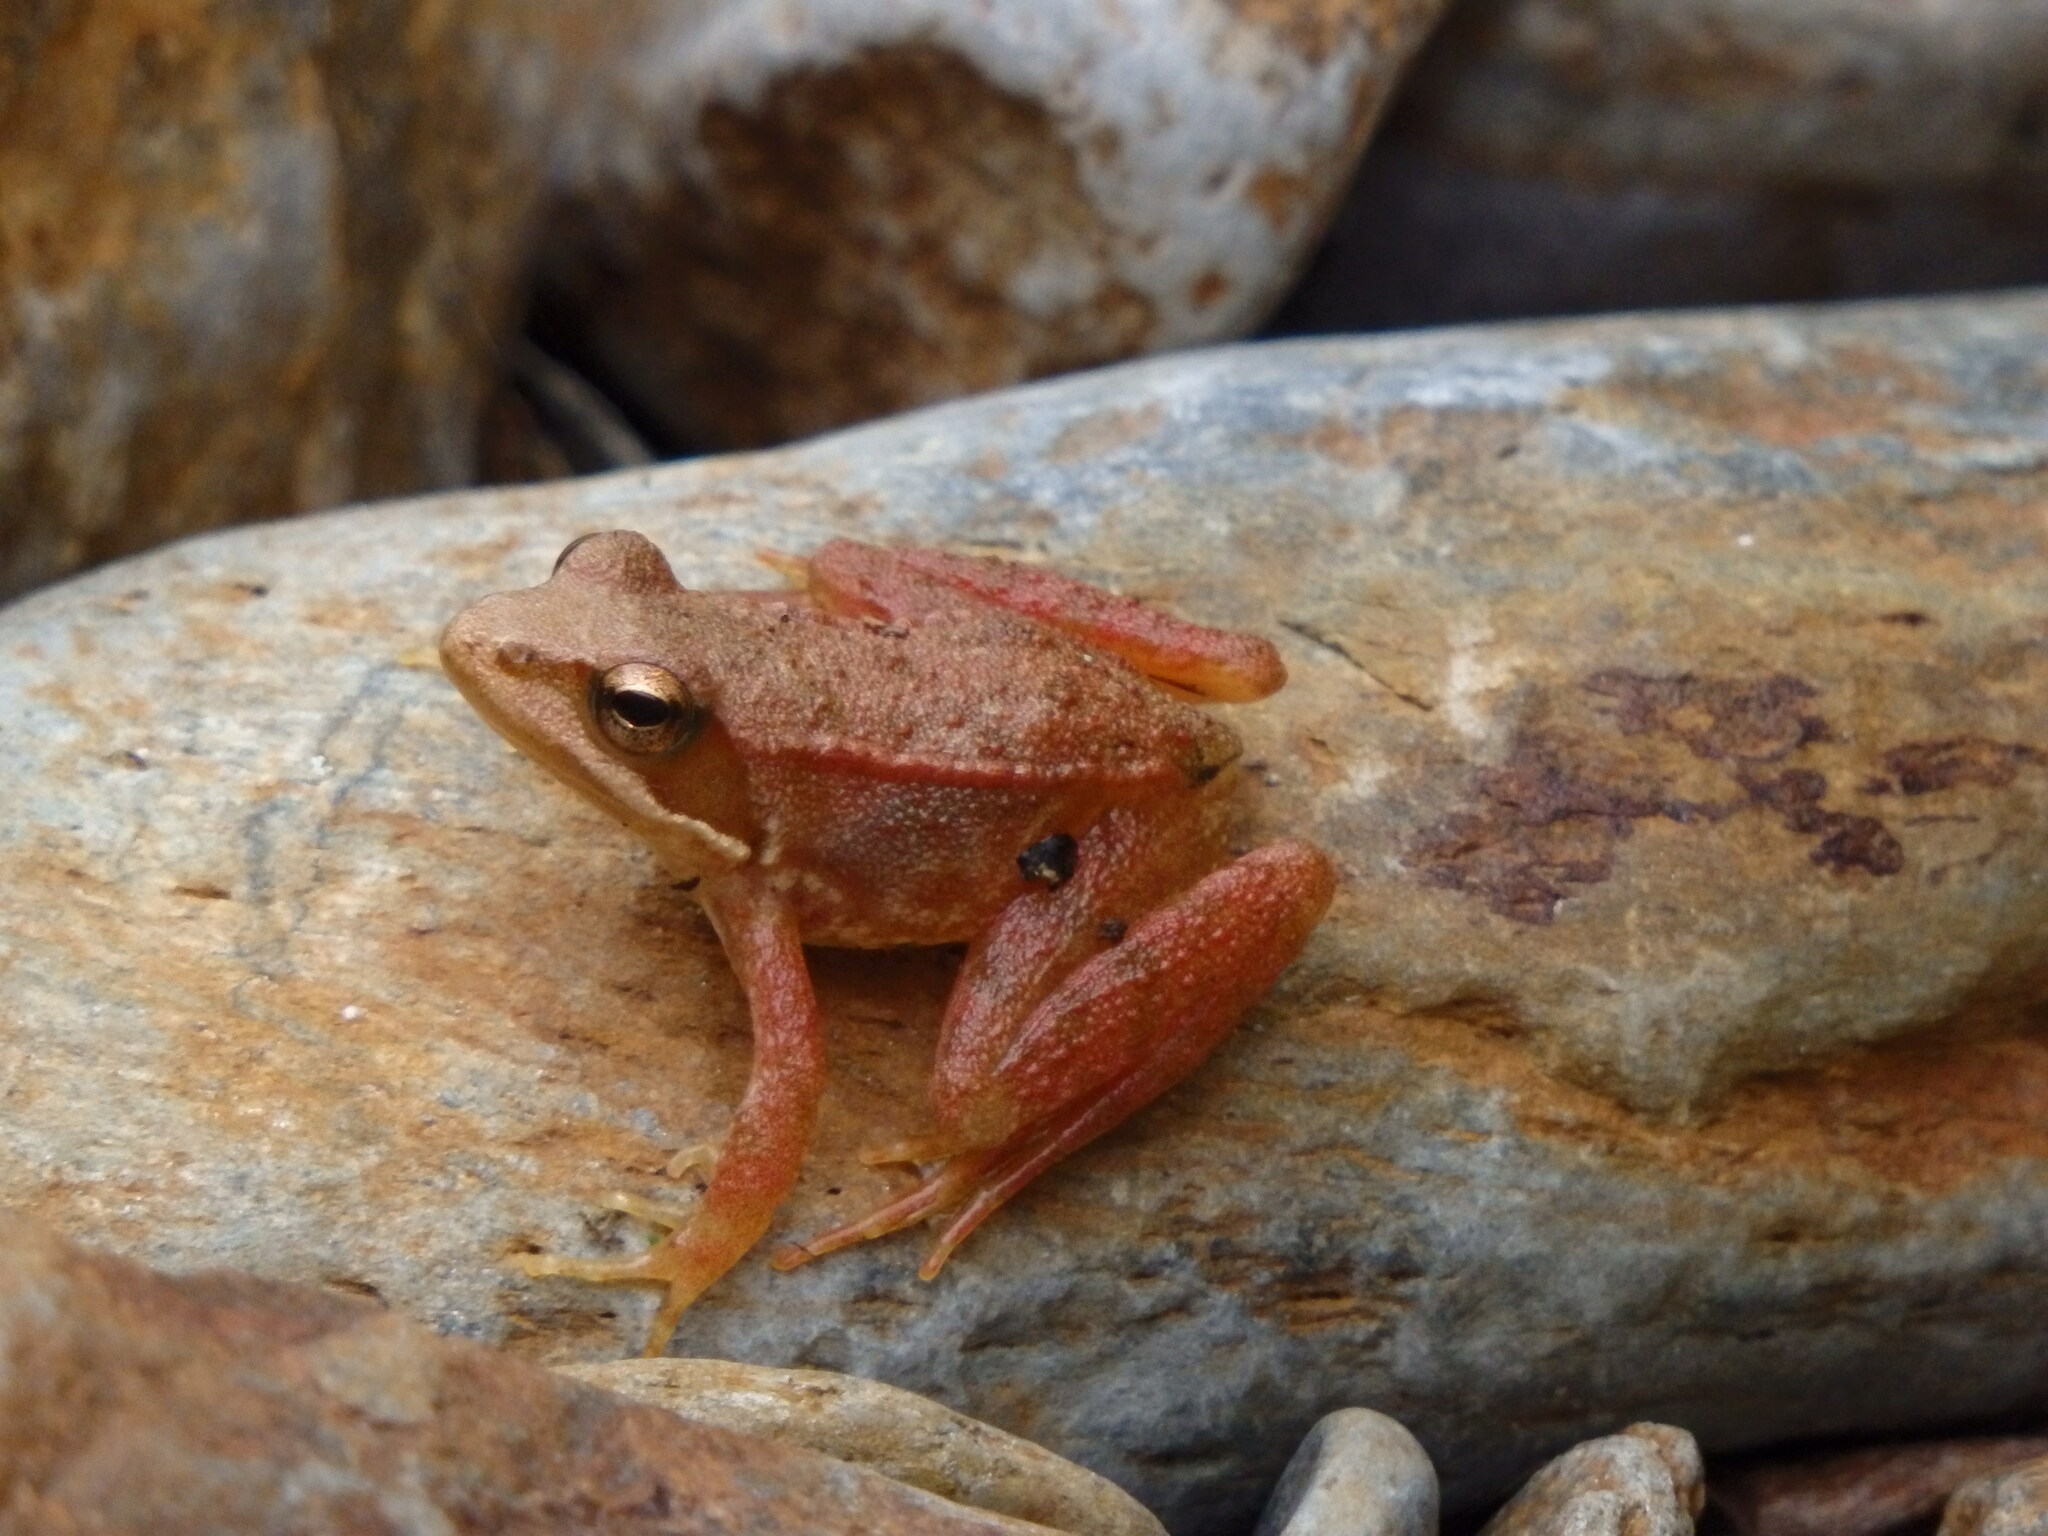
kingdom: Animalia
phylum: Chordata
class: Amphibia
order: Anura
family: Ranidae
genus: Rana
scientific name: Rana iberica
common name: Iberian frog
